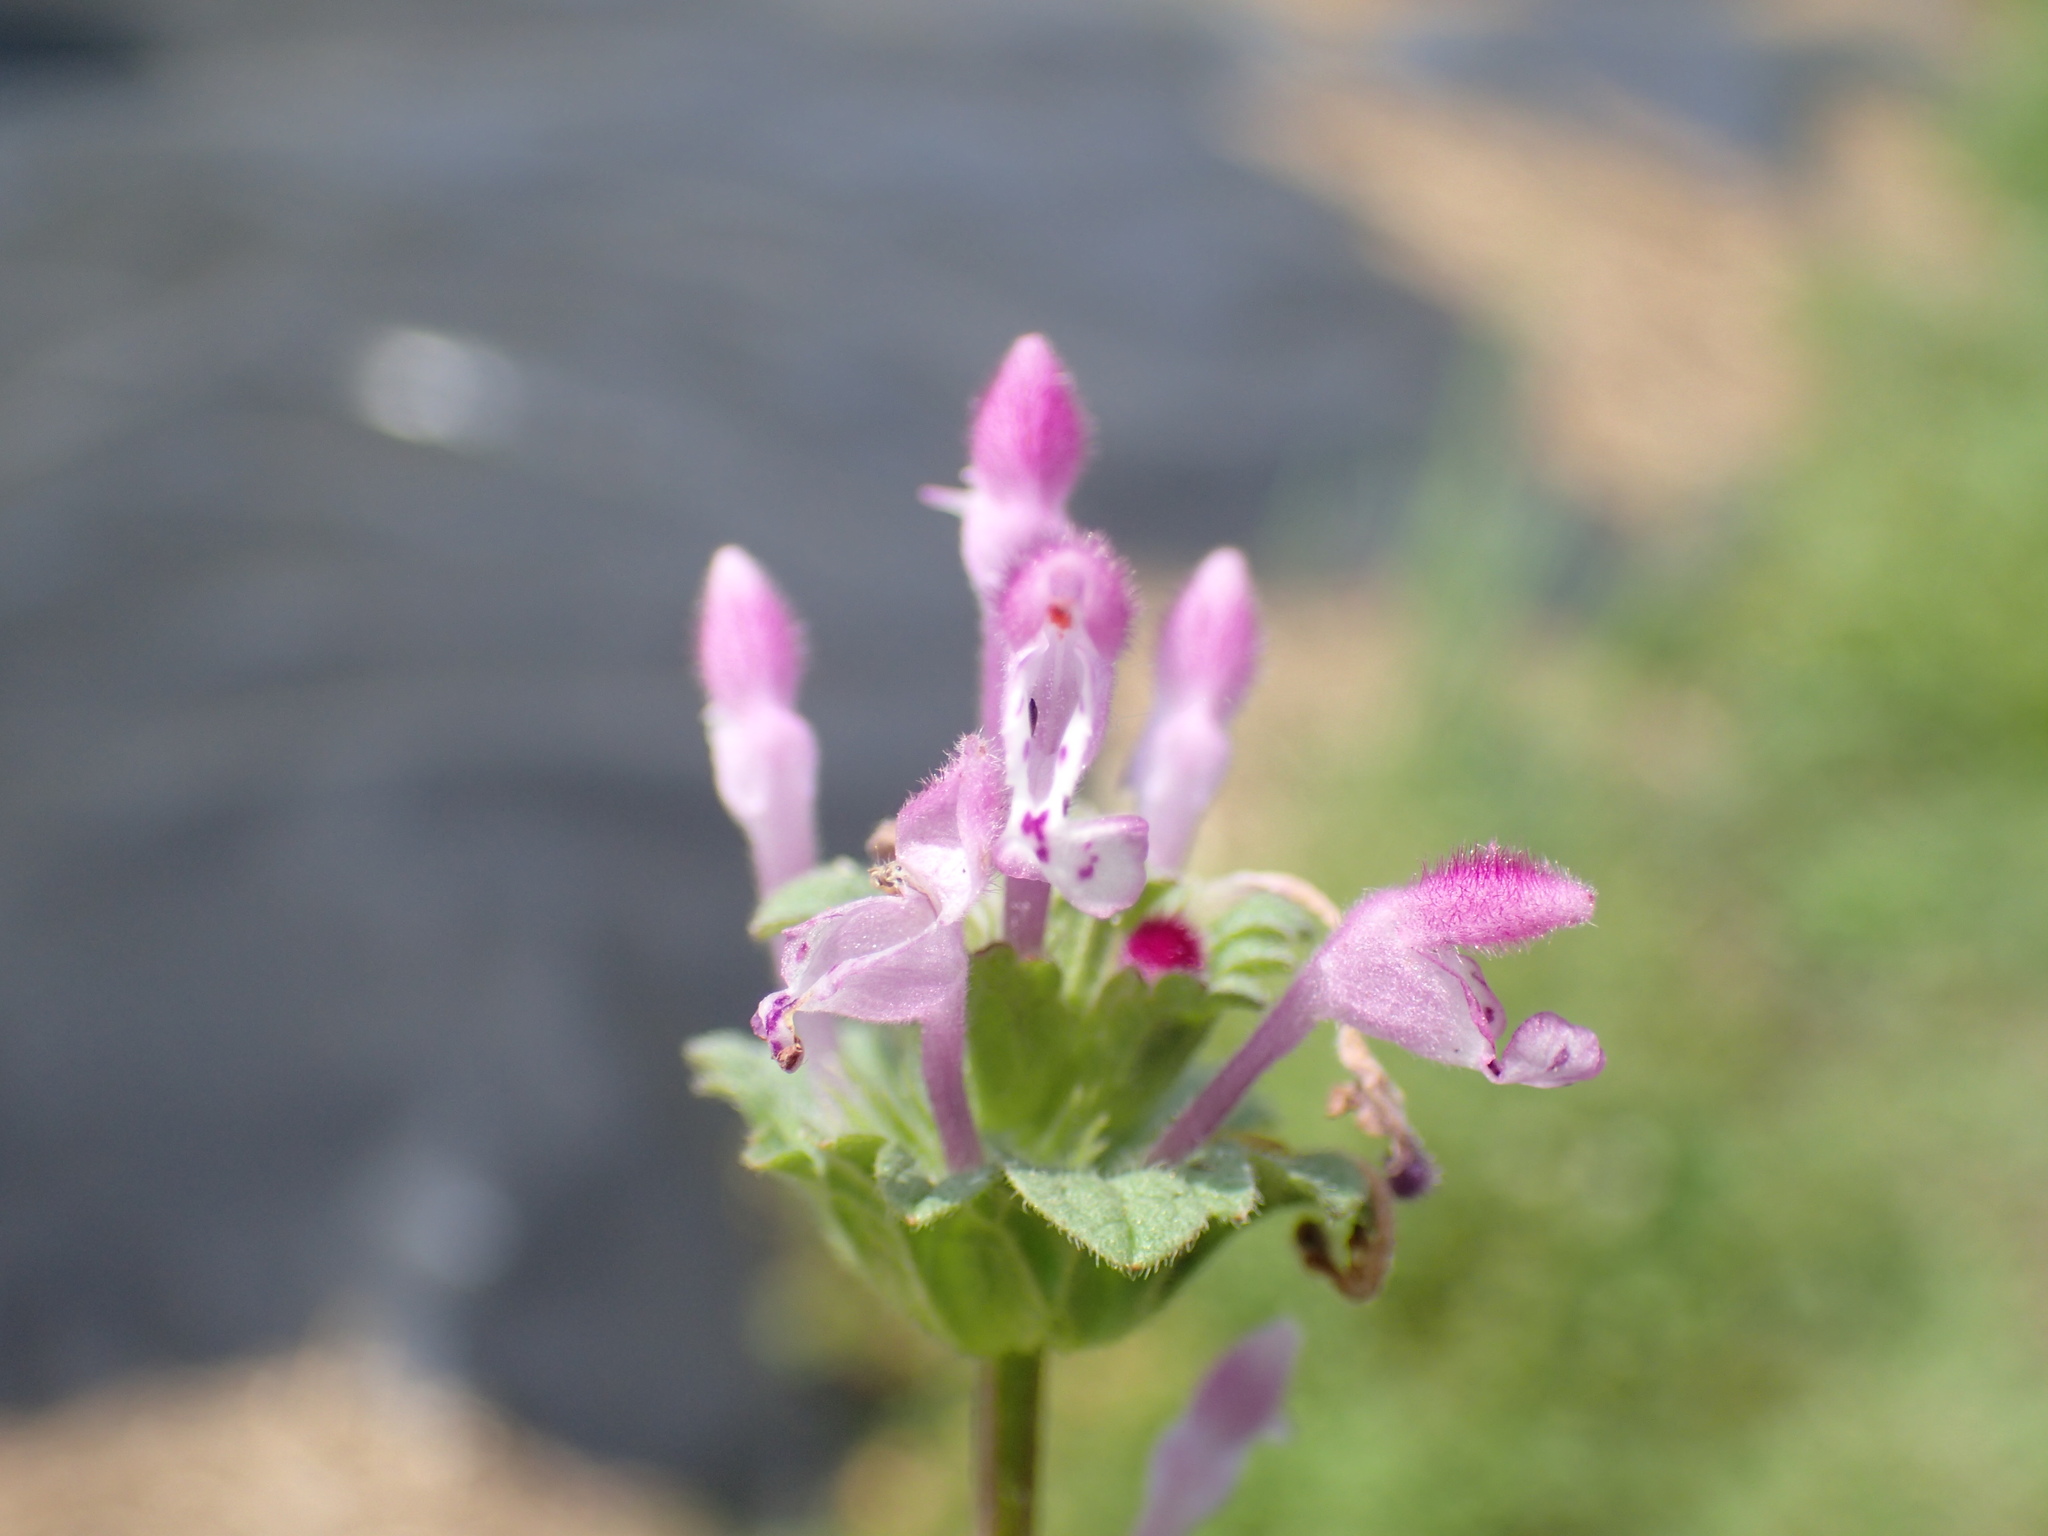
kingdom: Plantae
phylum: Tracheophyta
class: Magnoliopsida
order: Lamiales
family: Lamiaceae
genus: Lamium
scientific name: Lamium amplexicaule
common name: Henbit dead-nettle
